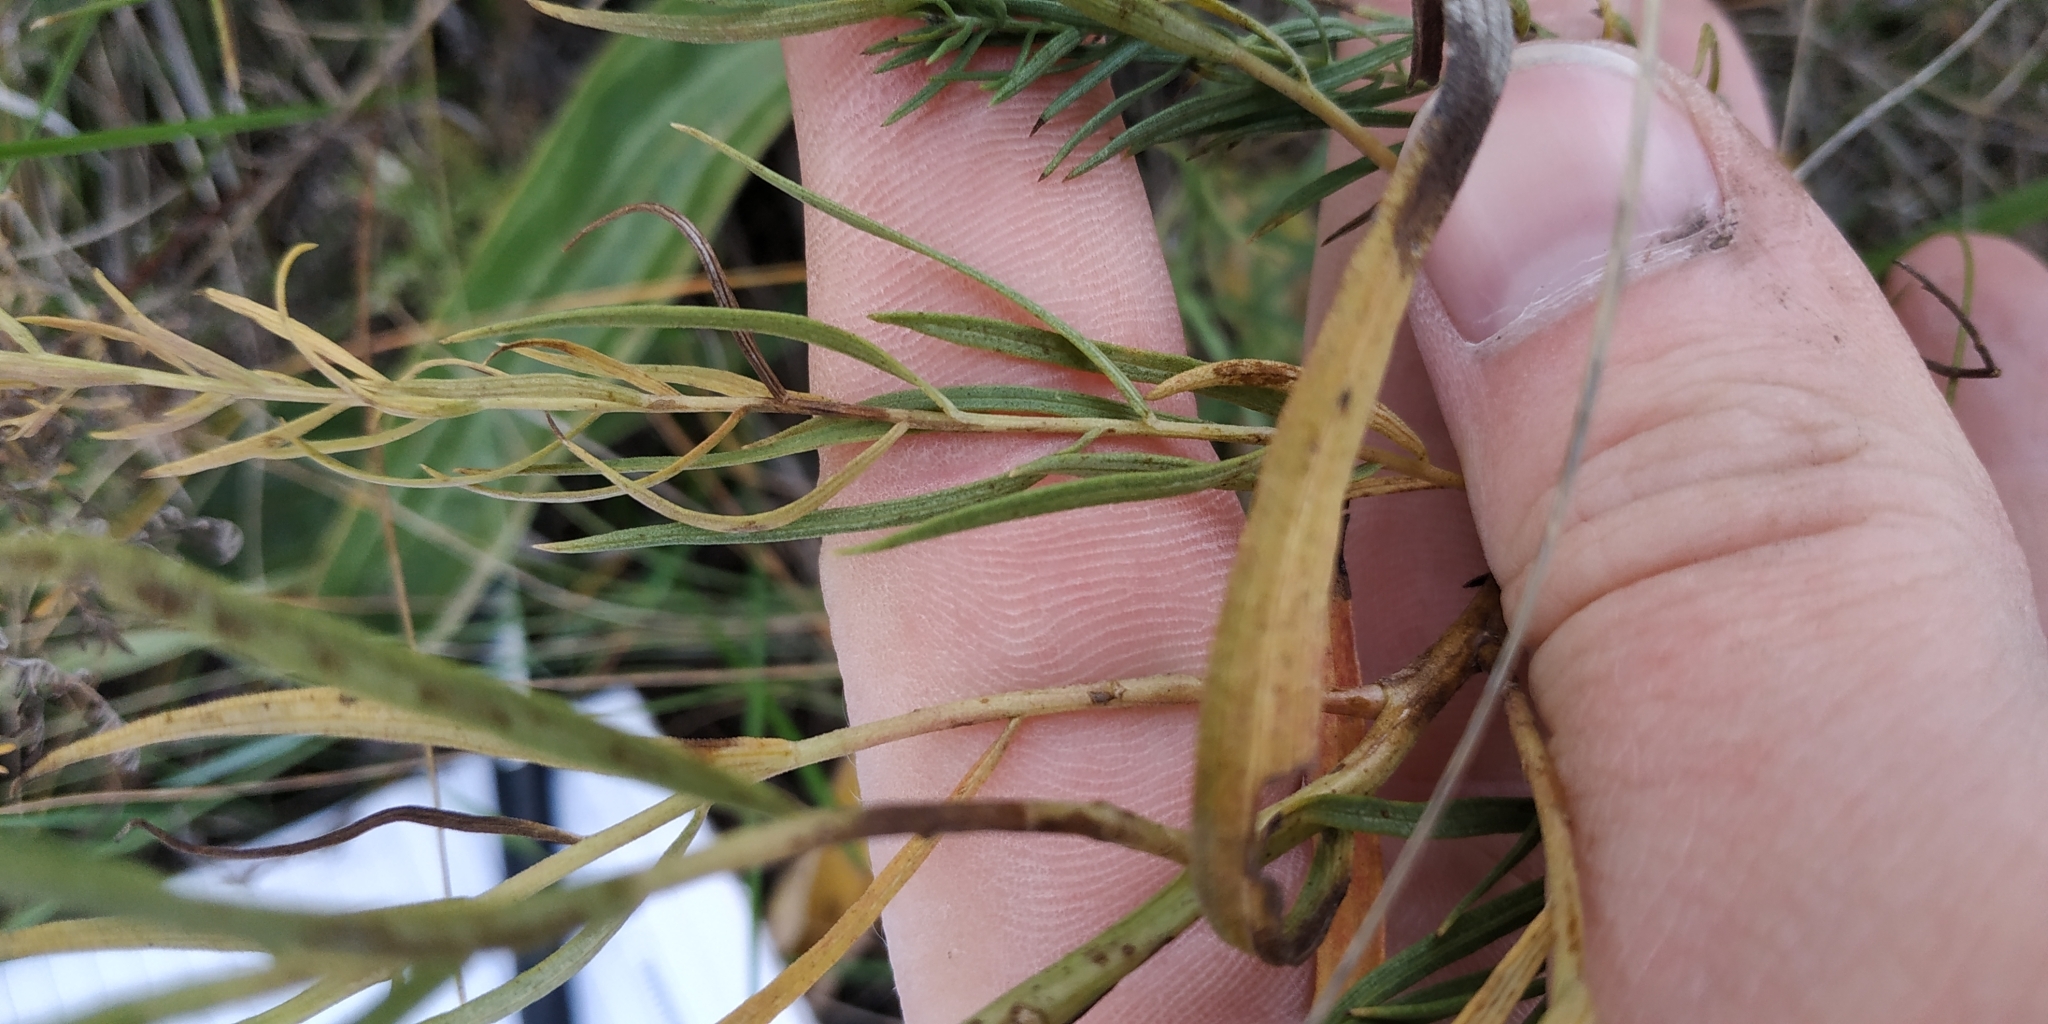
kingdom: Plantae
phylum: Tracheophyta
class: Magnoliopsida
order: Asterales
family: Asteraceae
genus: Galatella
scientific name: Galatella biflora
